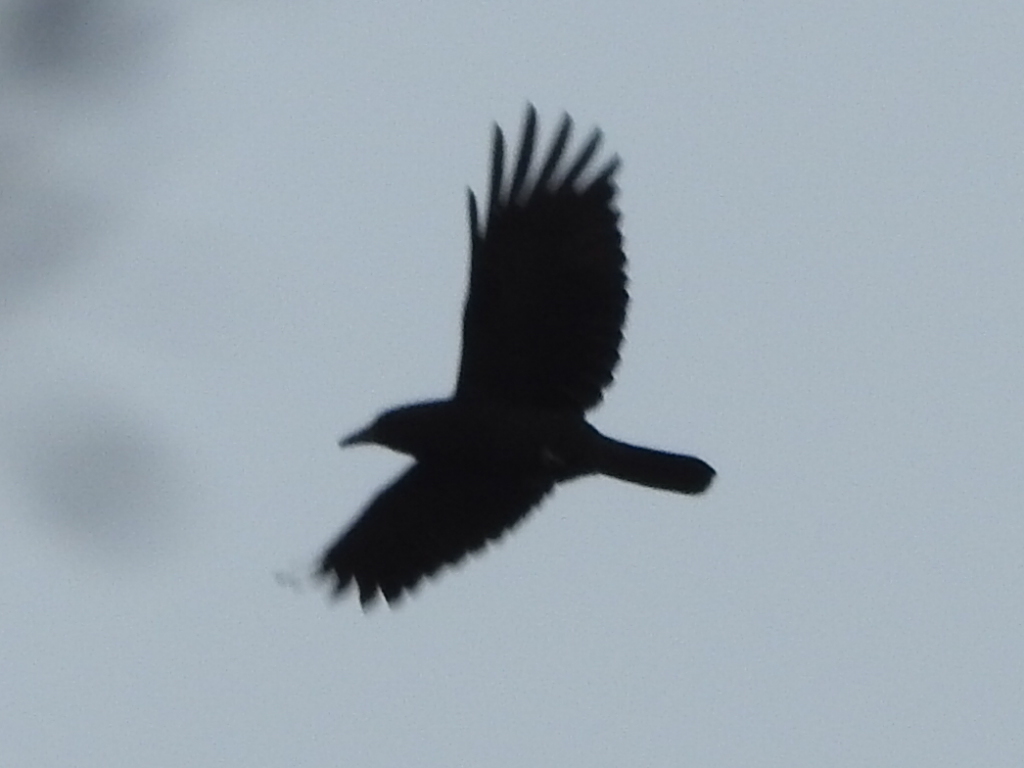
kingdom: Animalia
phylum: Chordata
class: Aves
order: Passeriformes
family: Corvidae
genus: Corvus
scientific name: Corvus brachyrhynchos
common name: American crow
